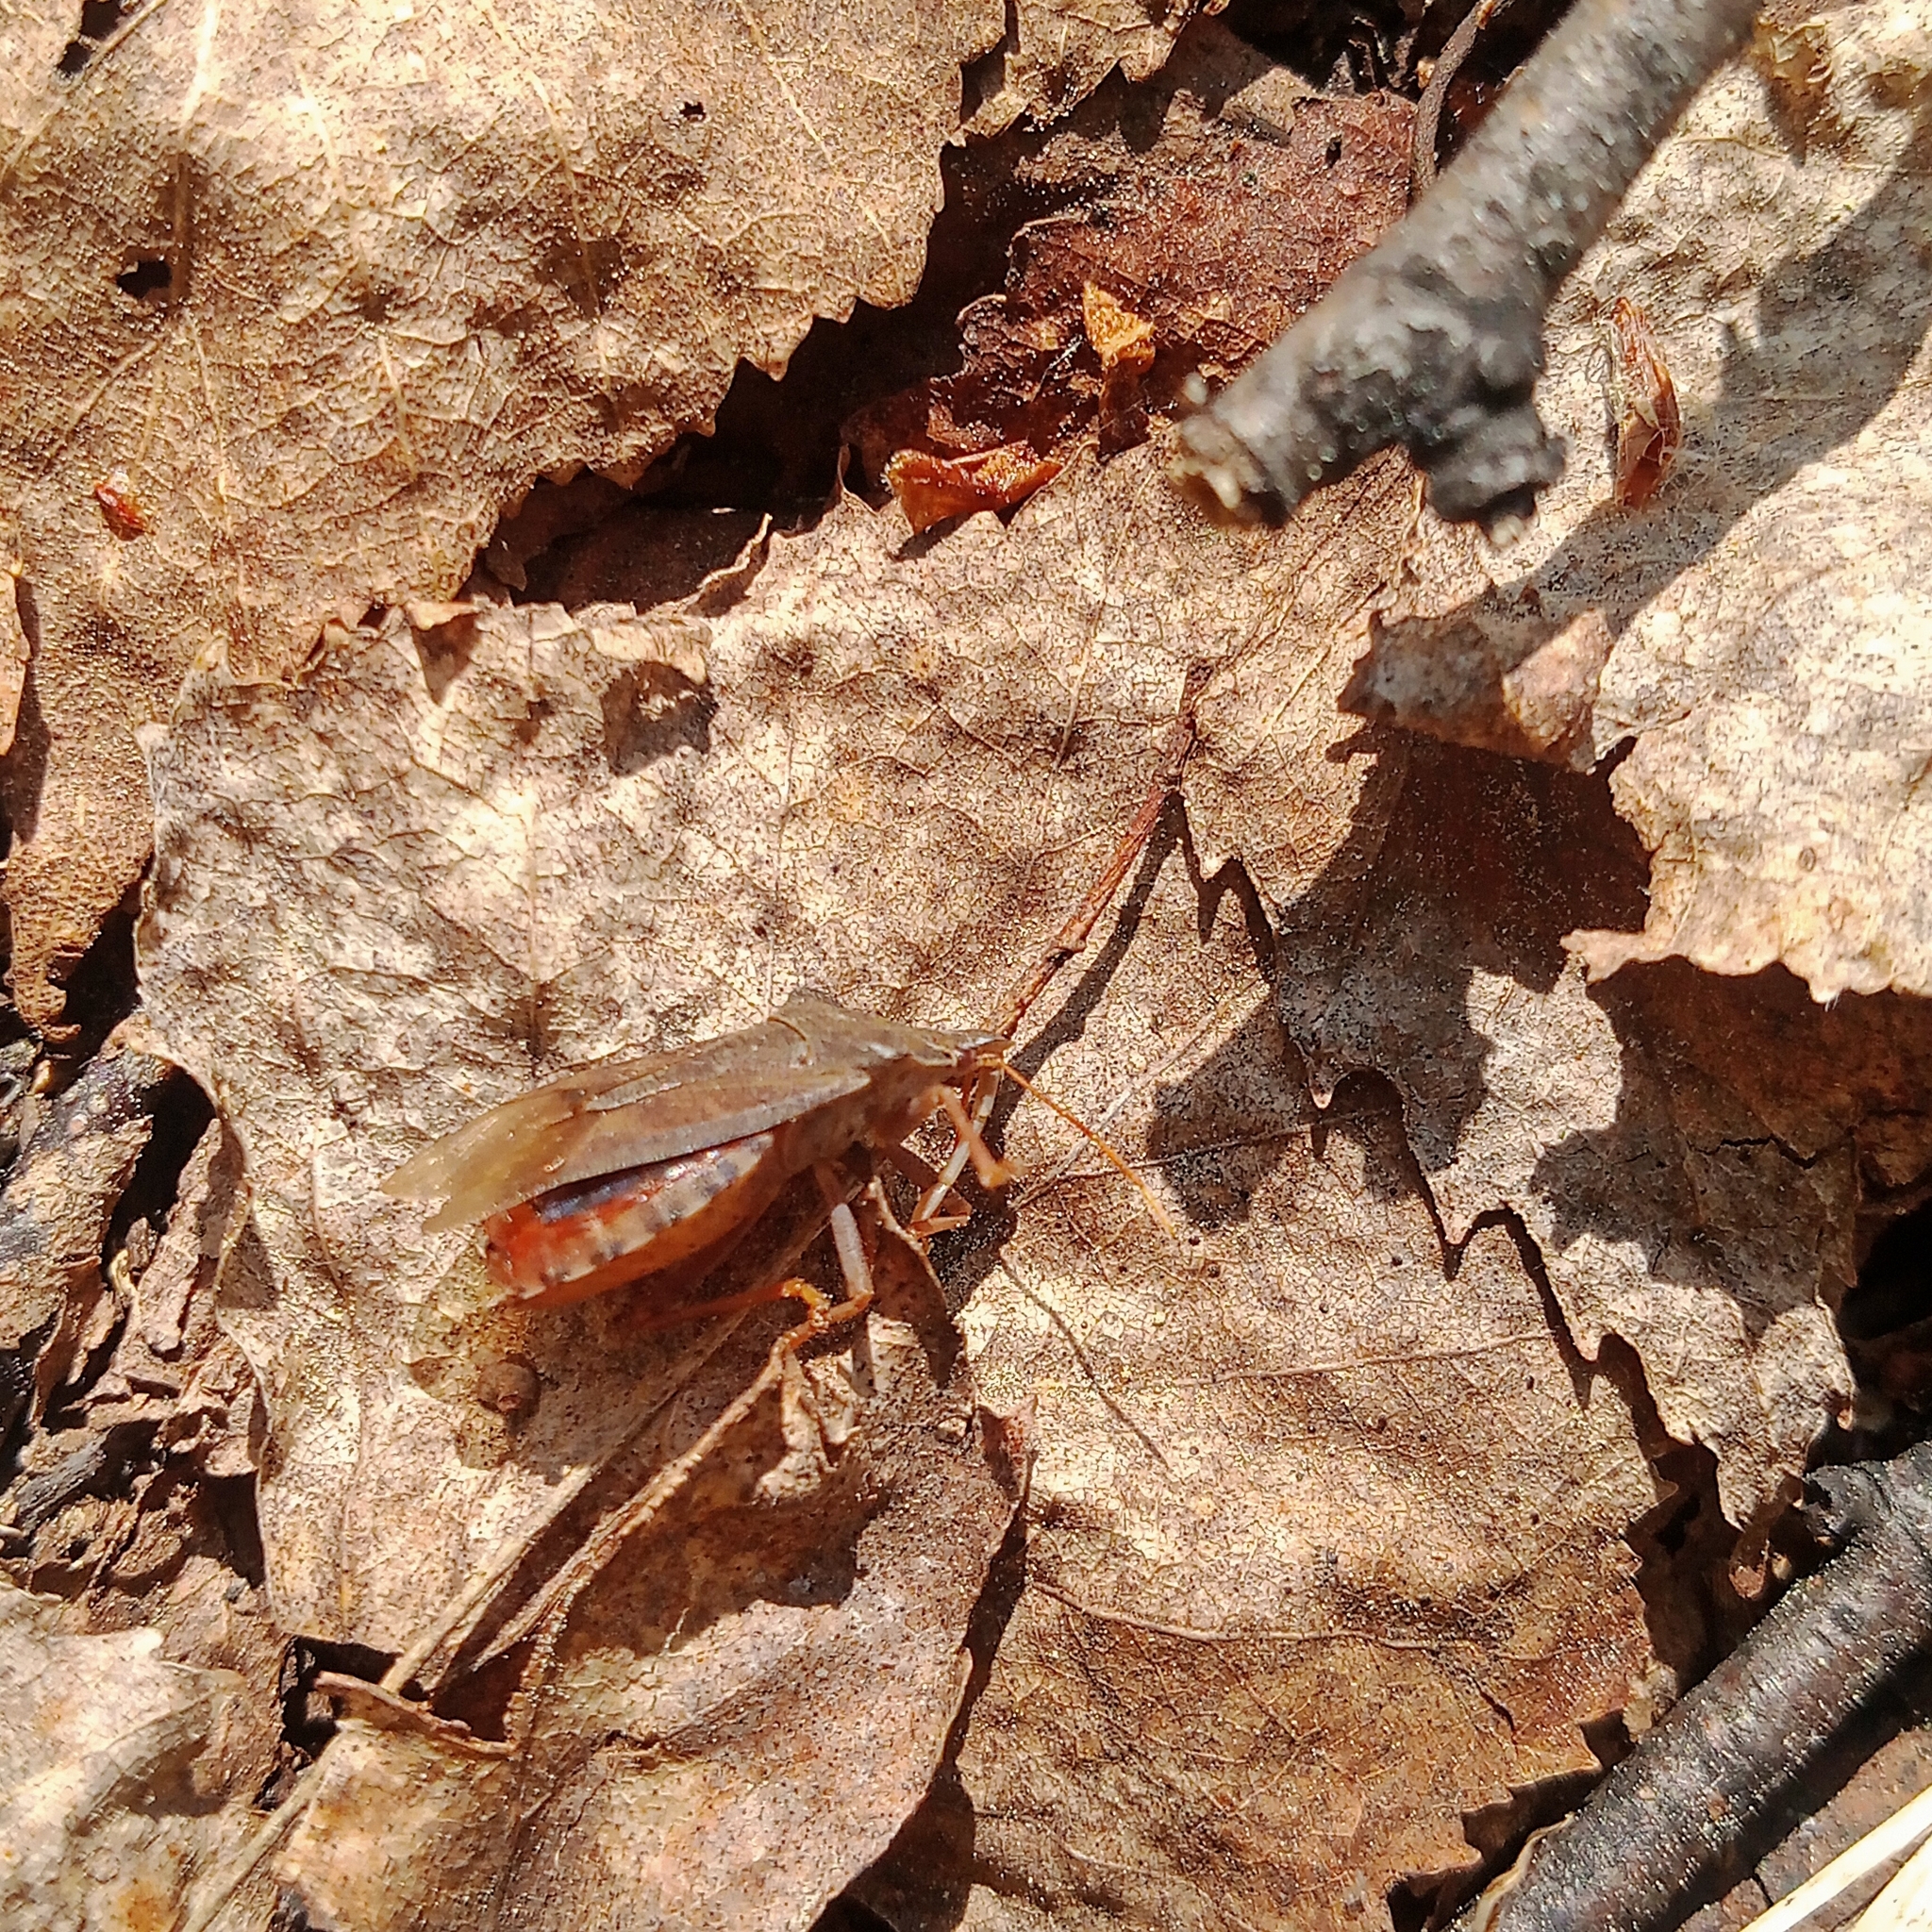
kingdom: Animalia
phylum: Arthropoda
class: Insecta
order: Hemiptera
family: Pentatomidae
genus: Arma
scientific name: Arma custos
